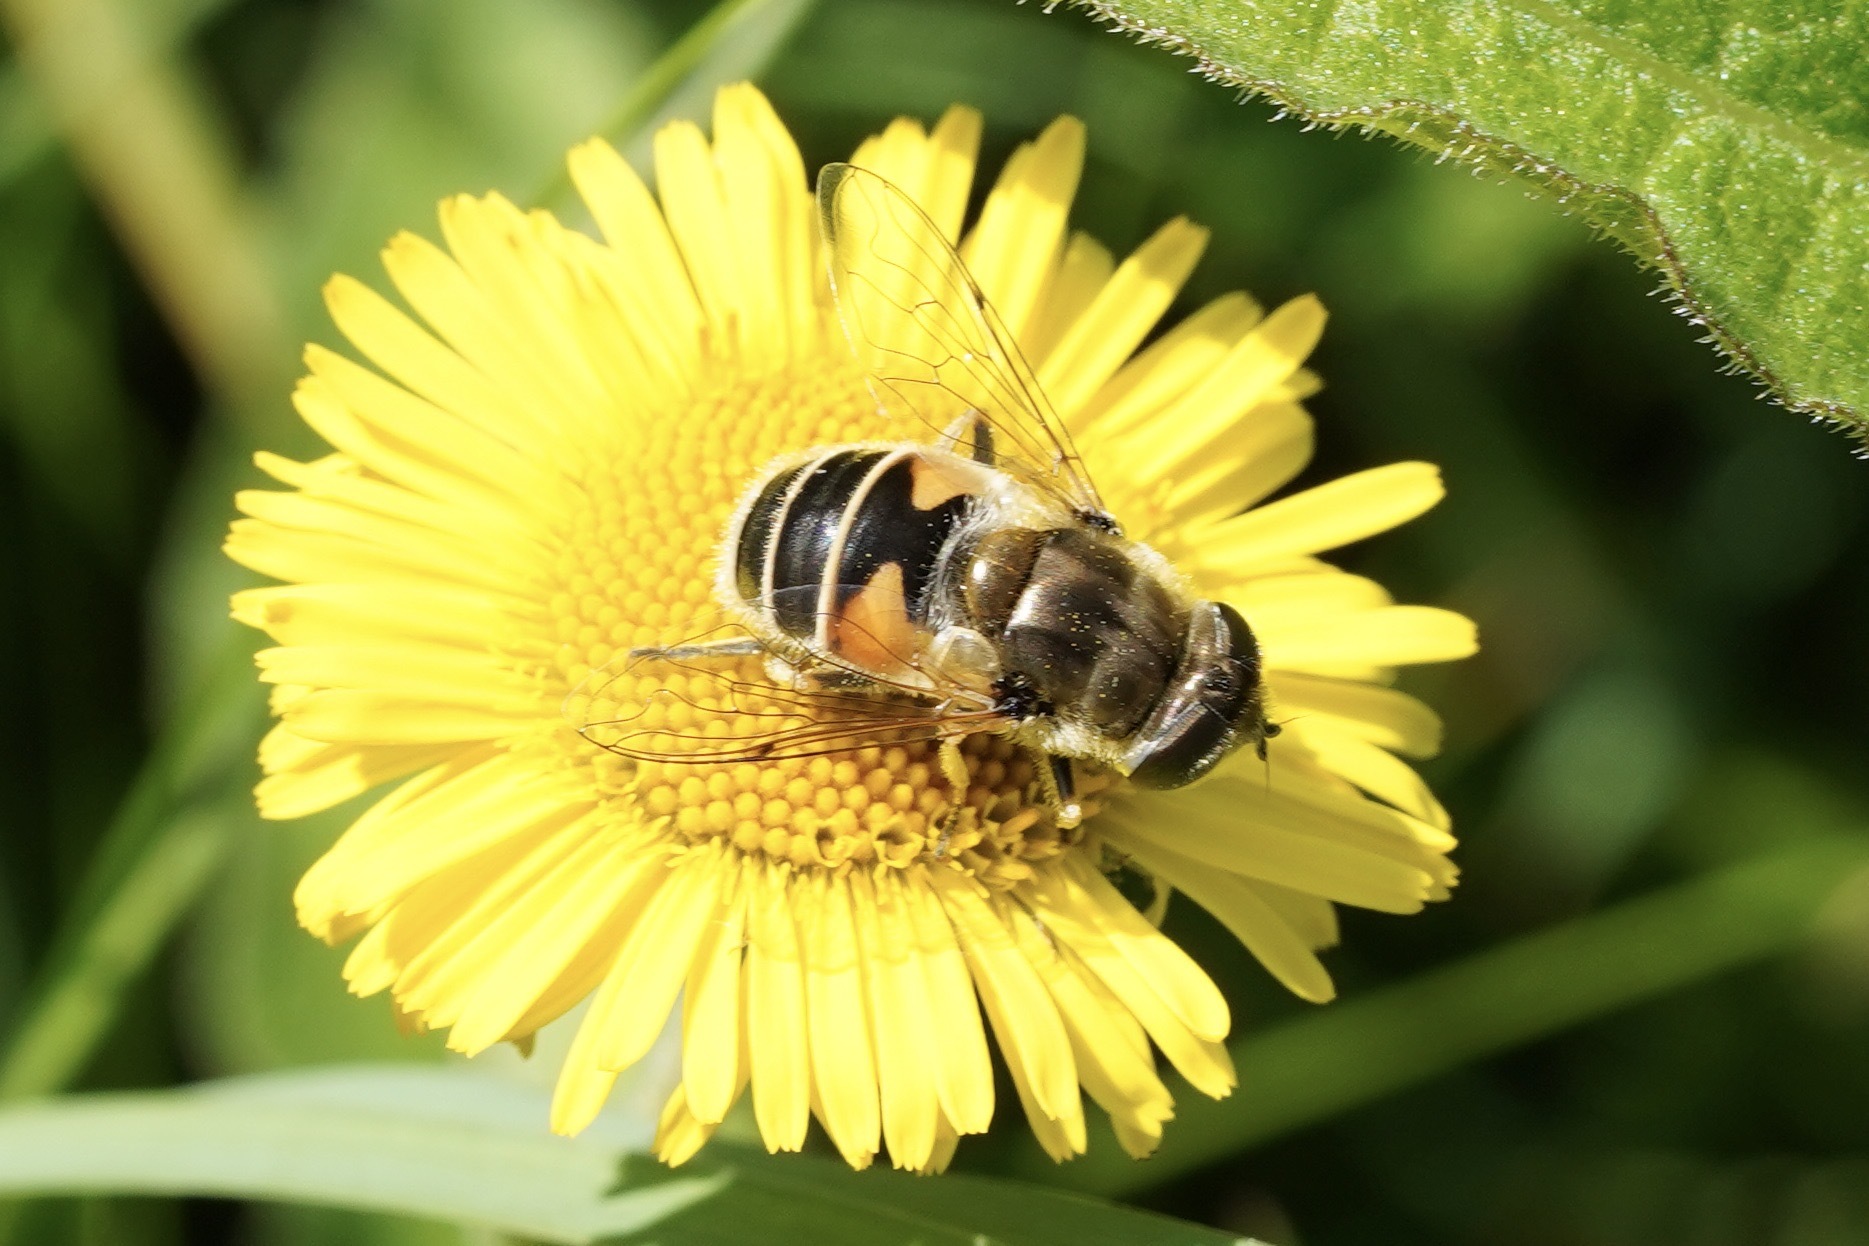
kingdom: Animalia
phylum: Arthropoda
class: Insecta
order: Diptera
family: Syrphidae
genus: Eristalis
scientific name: Eristalis arbustorum
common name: Hover fly
